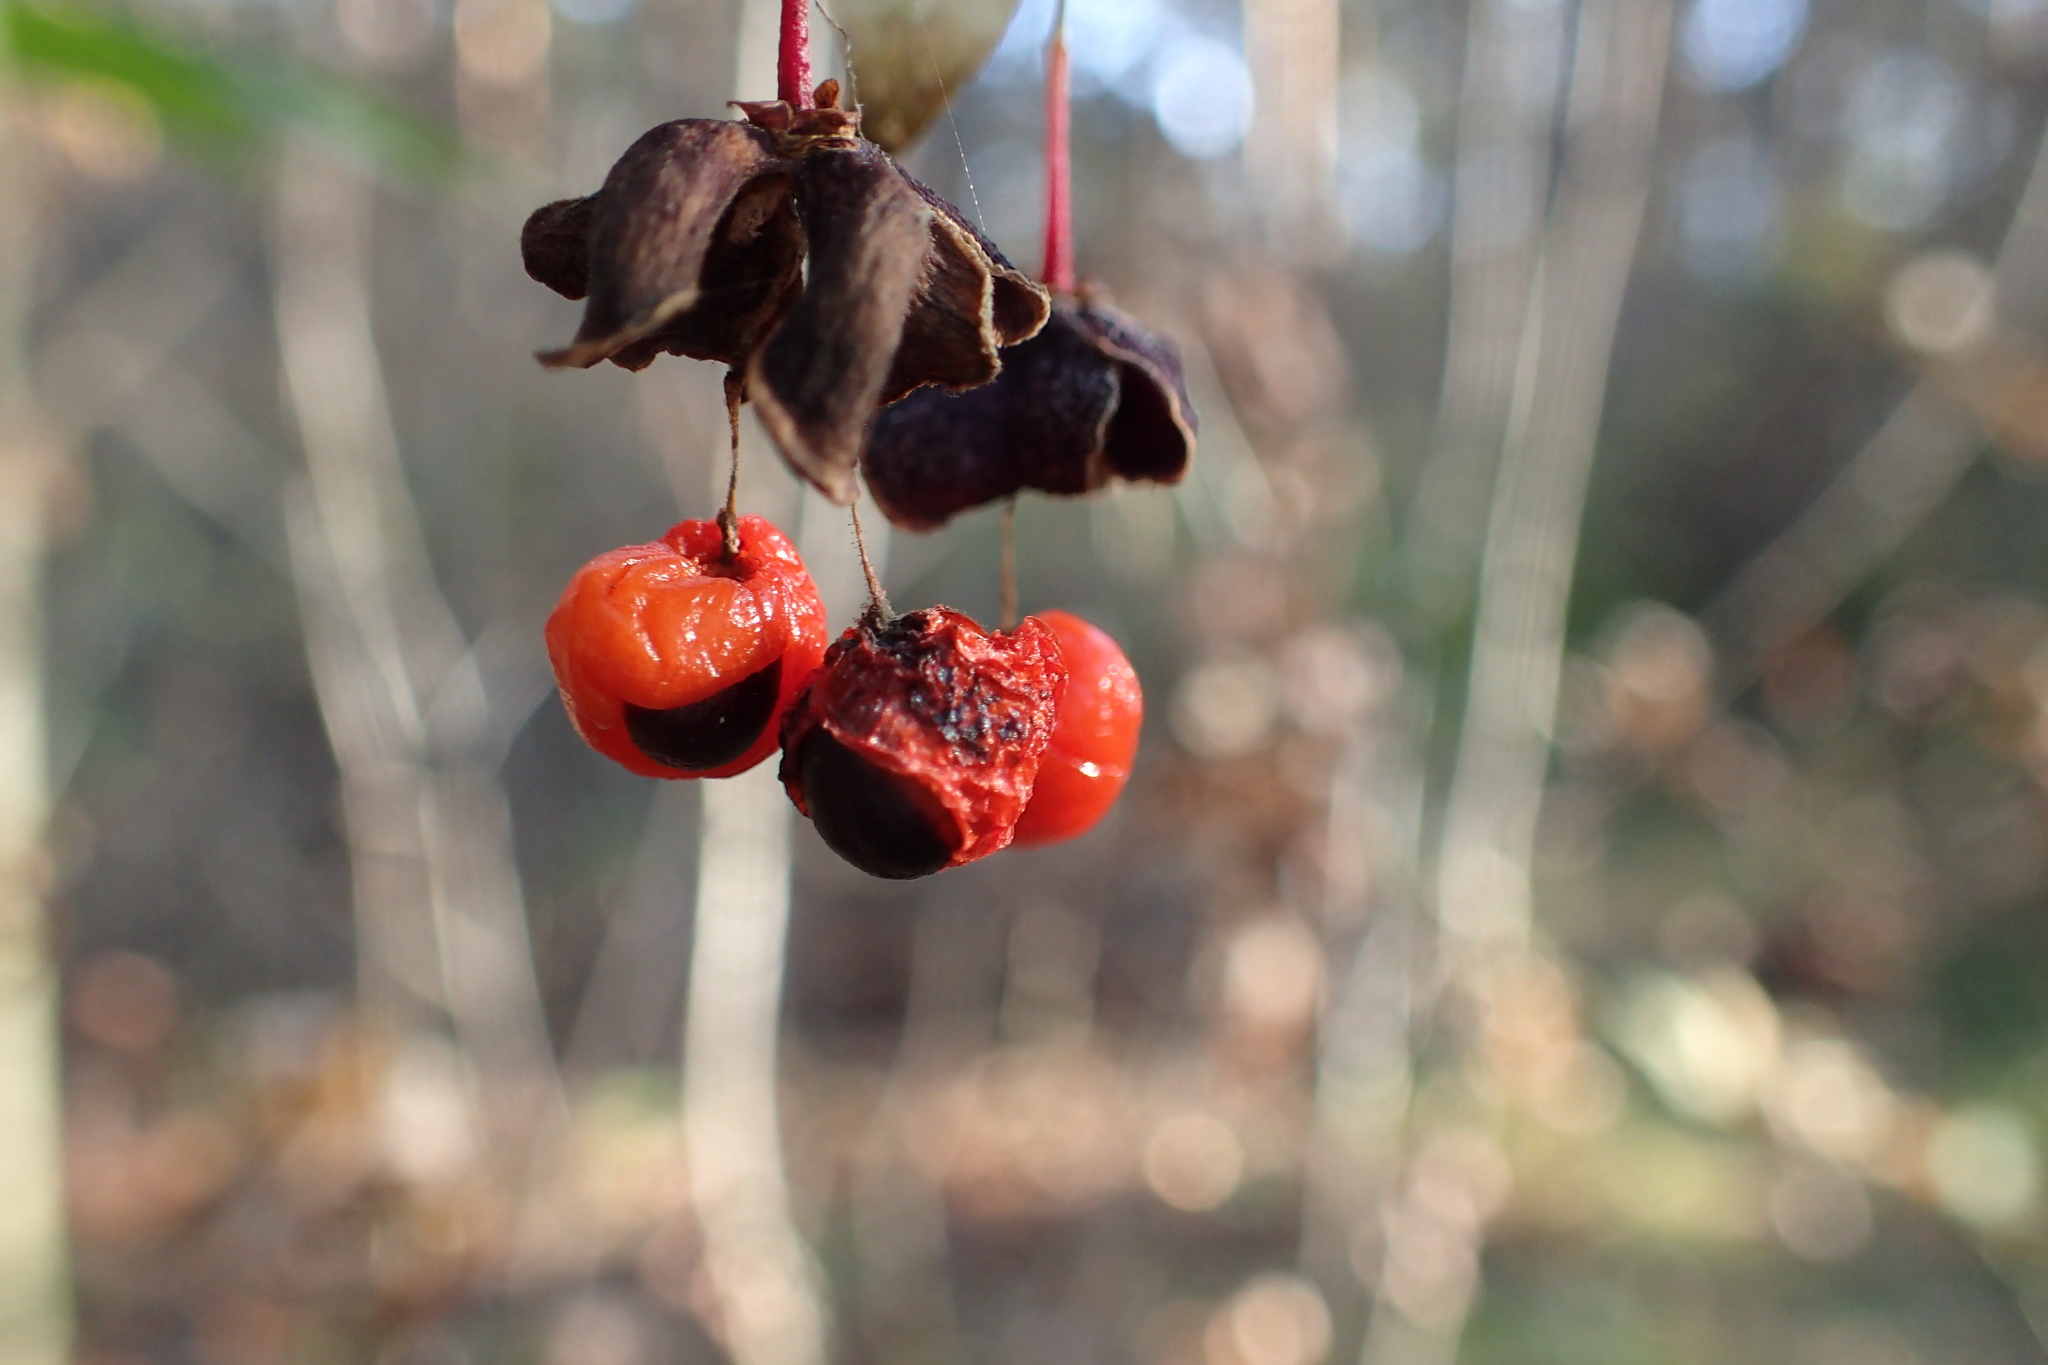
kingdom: Plantae
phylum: Tracheophyta
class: Magnoliopsida
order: Celastrales
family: Celastraceae
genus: Euonymus
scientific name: Euonymus verrucosus
